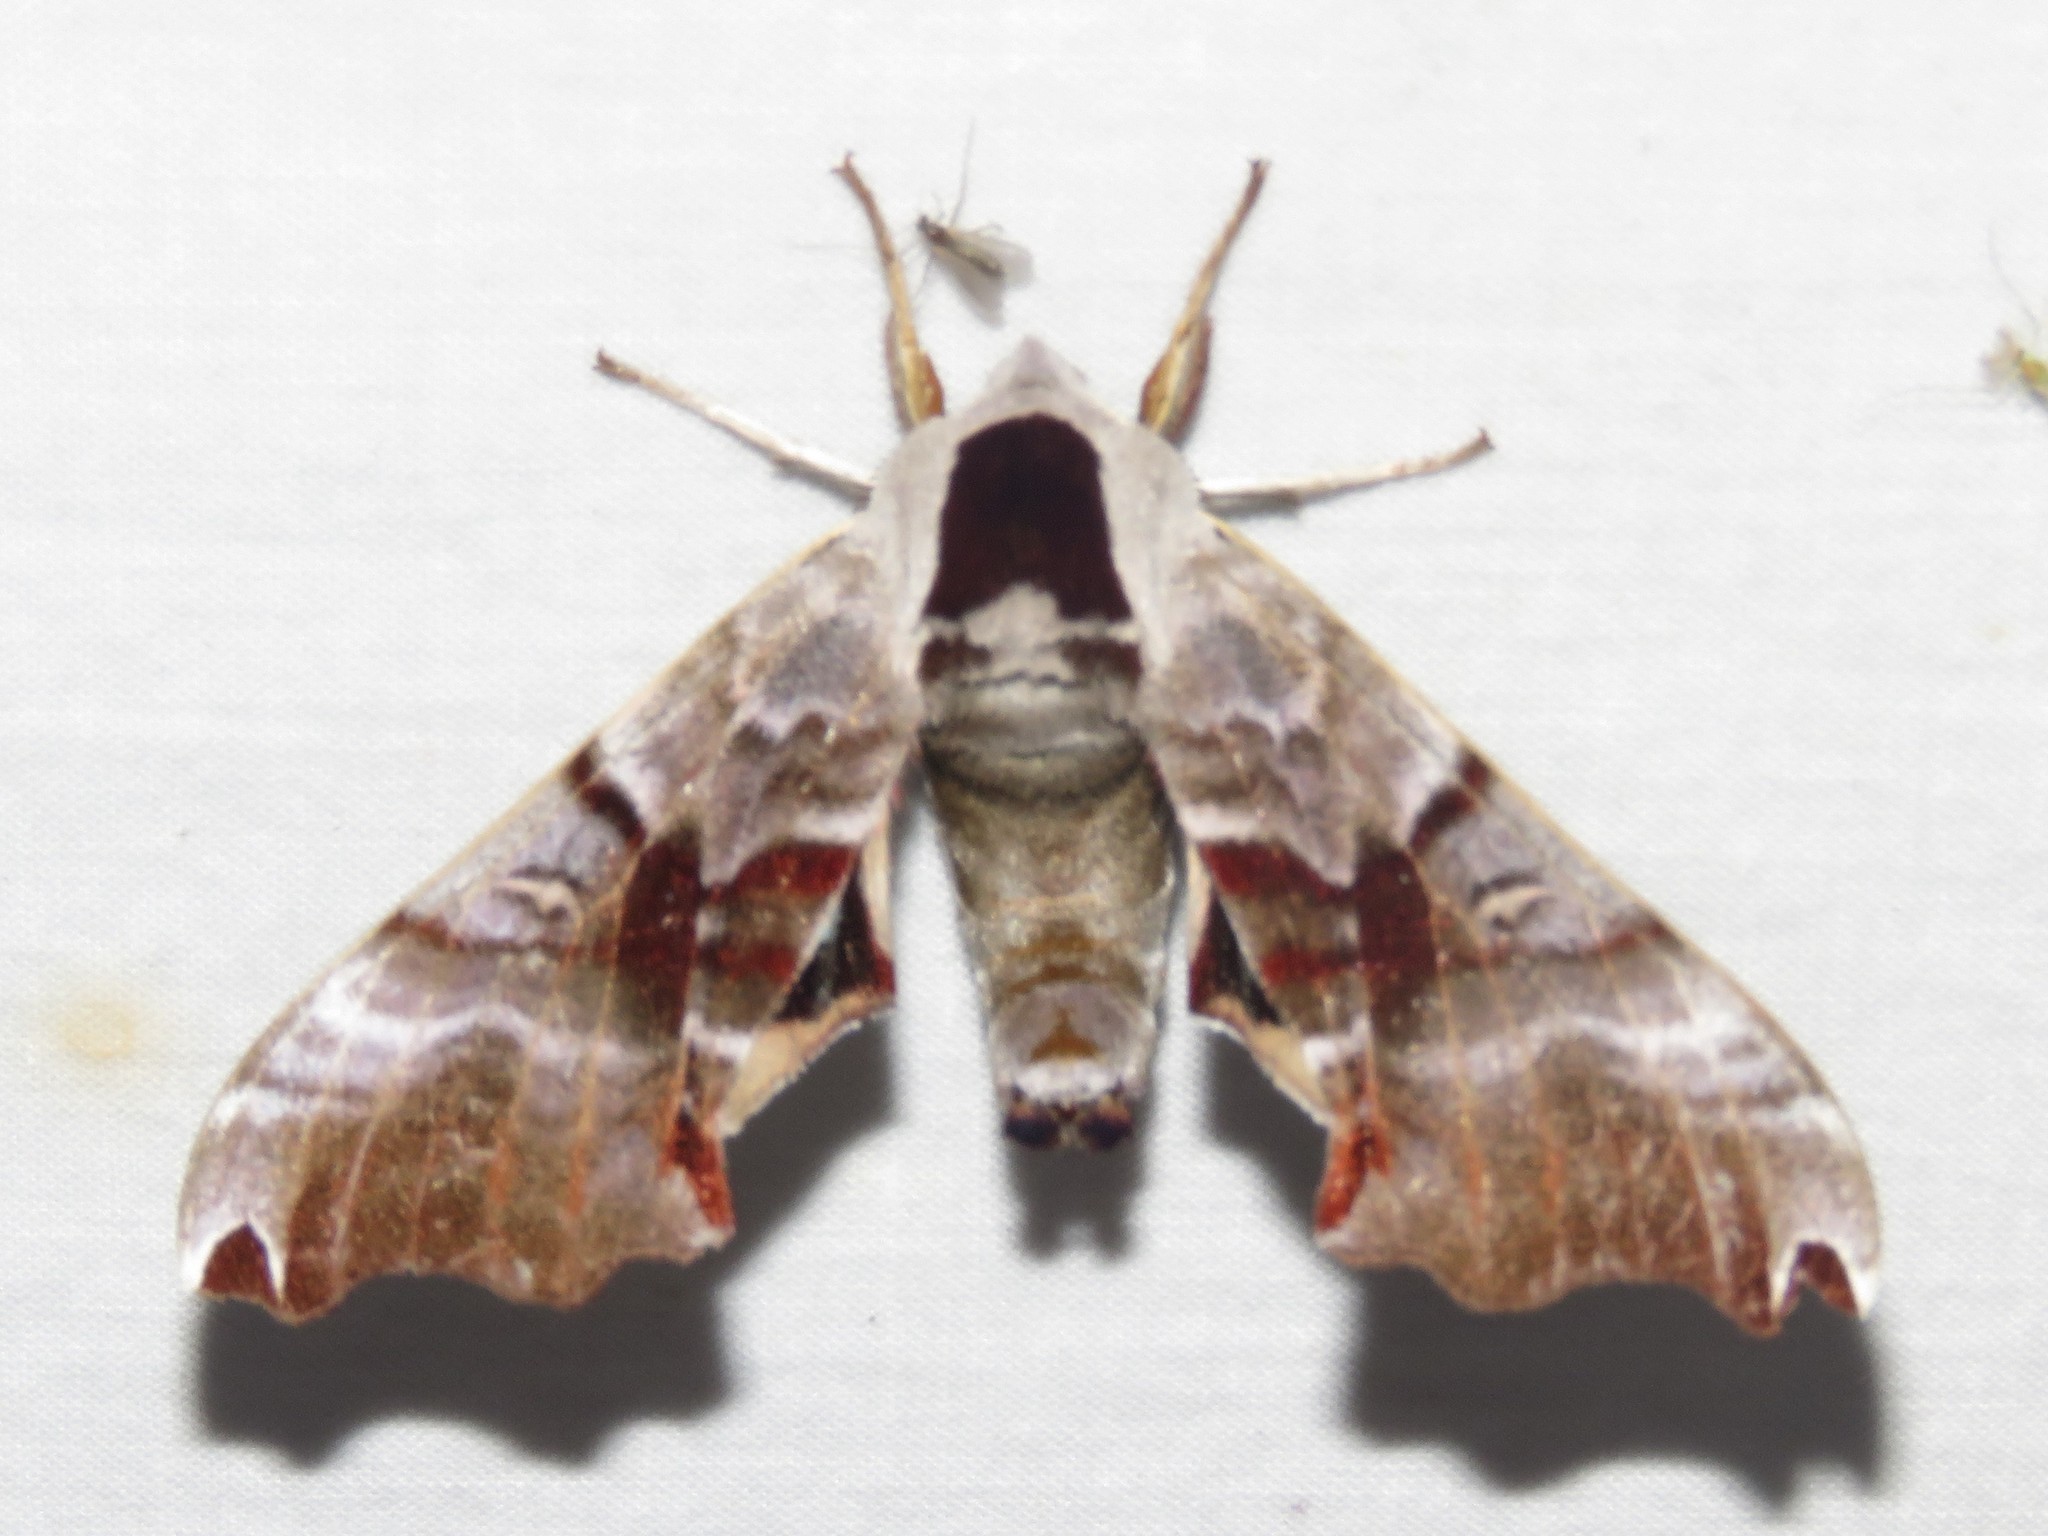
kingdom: Animalia
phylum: Arthropoda
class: Insecta
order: Lepidoptera
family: Sphingidae
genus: Smerinthus
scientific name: Smerinthus jamaicensis
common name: Twin spotted sphinx
